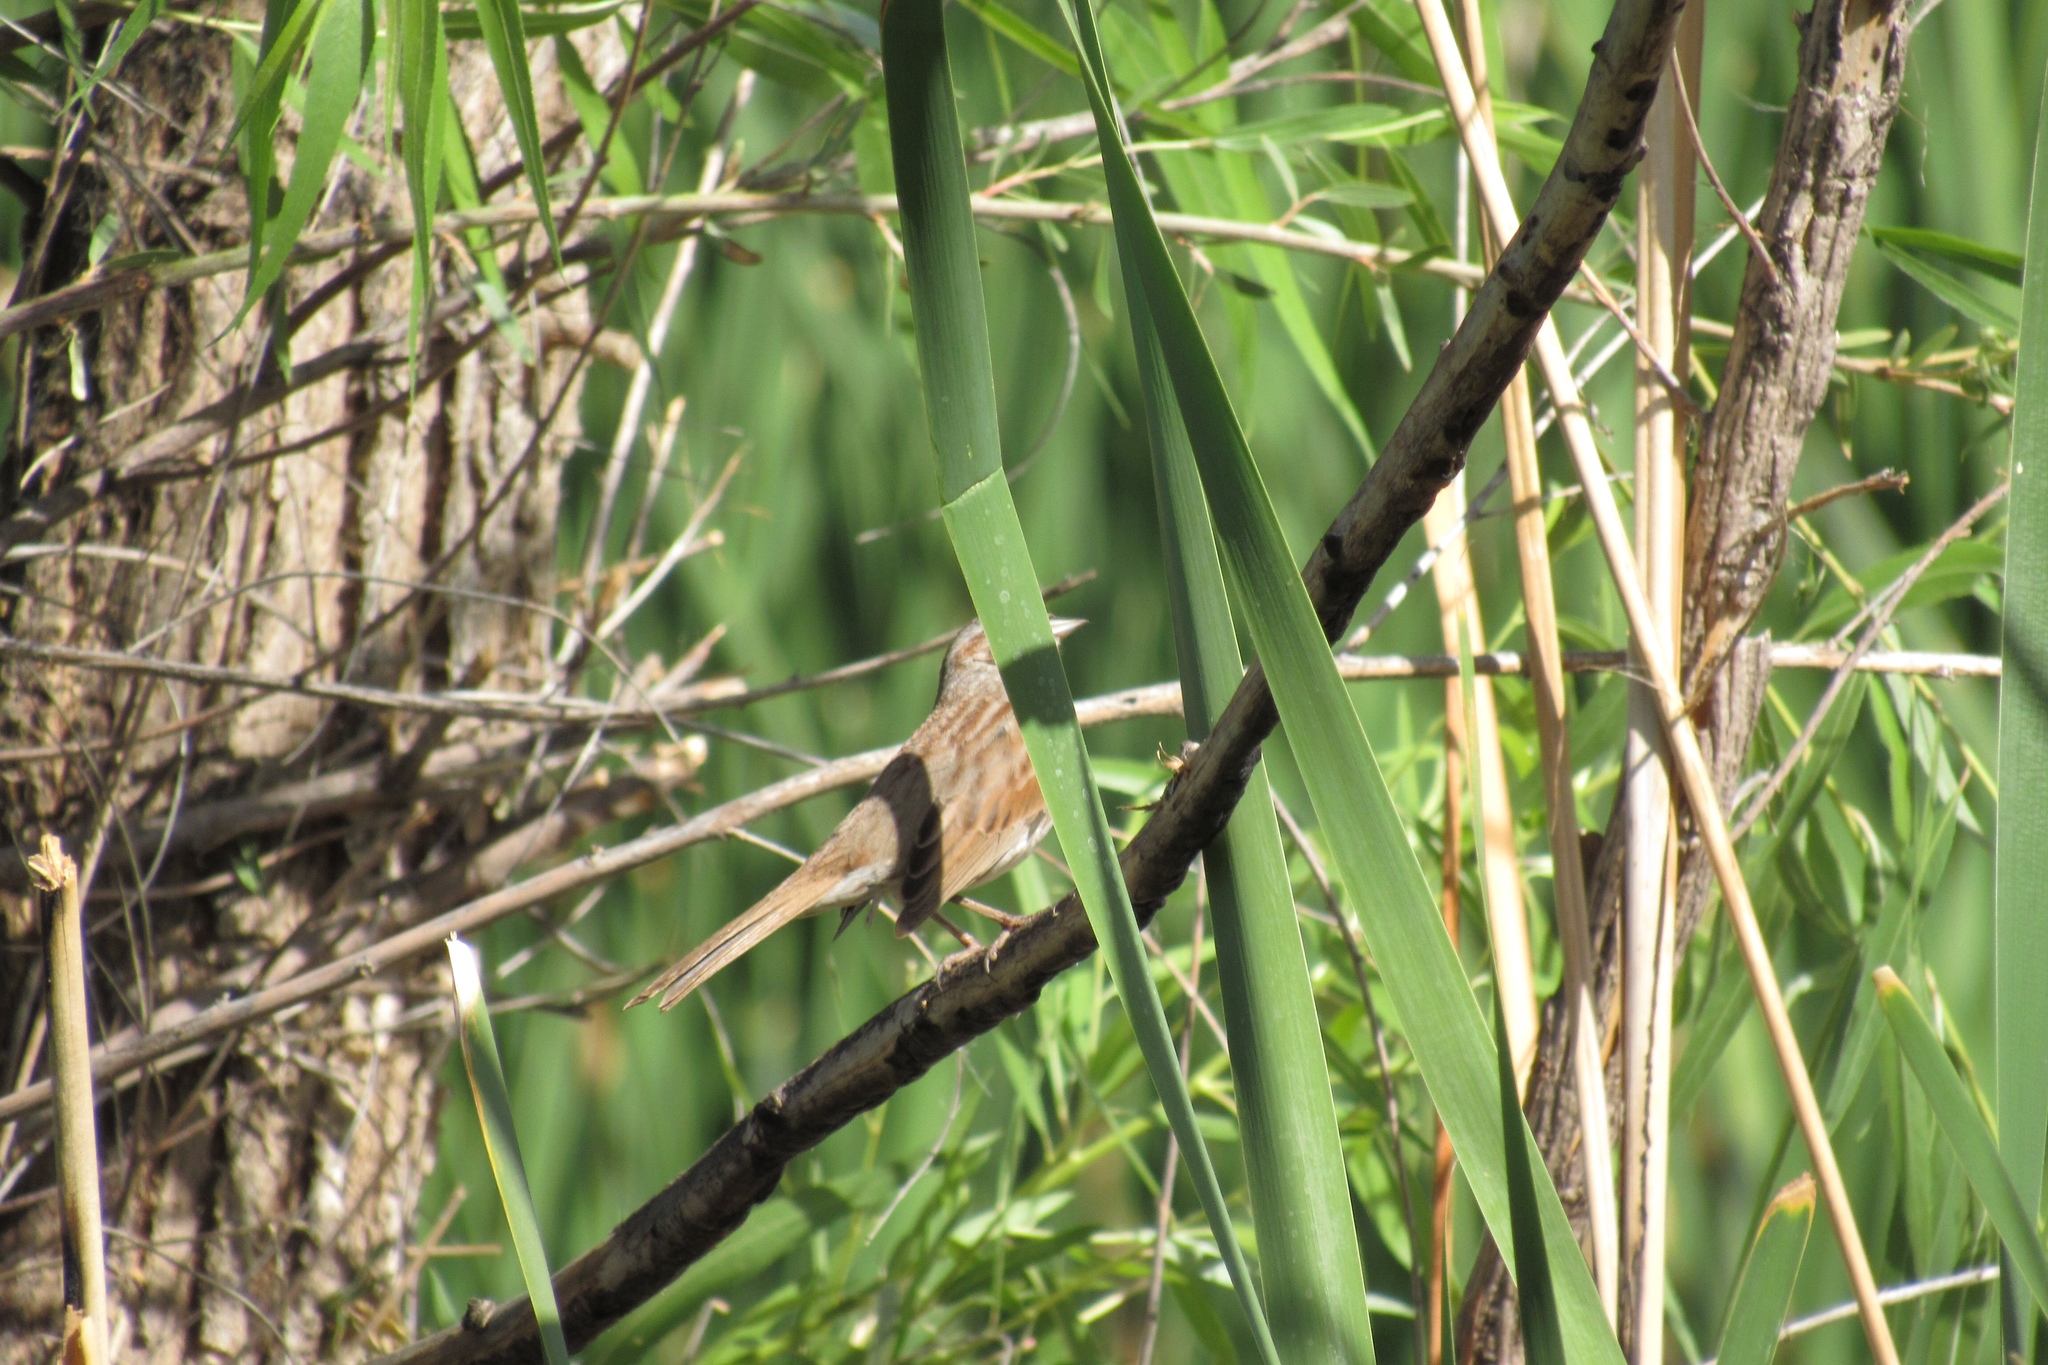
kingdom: Animalia
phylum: Chordata
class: Aves
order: Passeriformes
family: Passerellidae
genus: Melospiza
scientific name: Melospiza melodia
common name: Song sparrow
